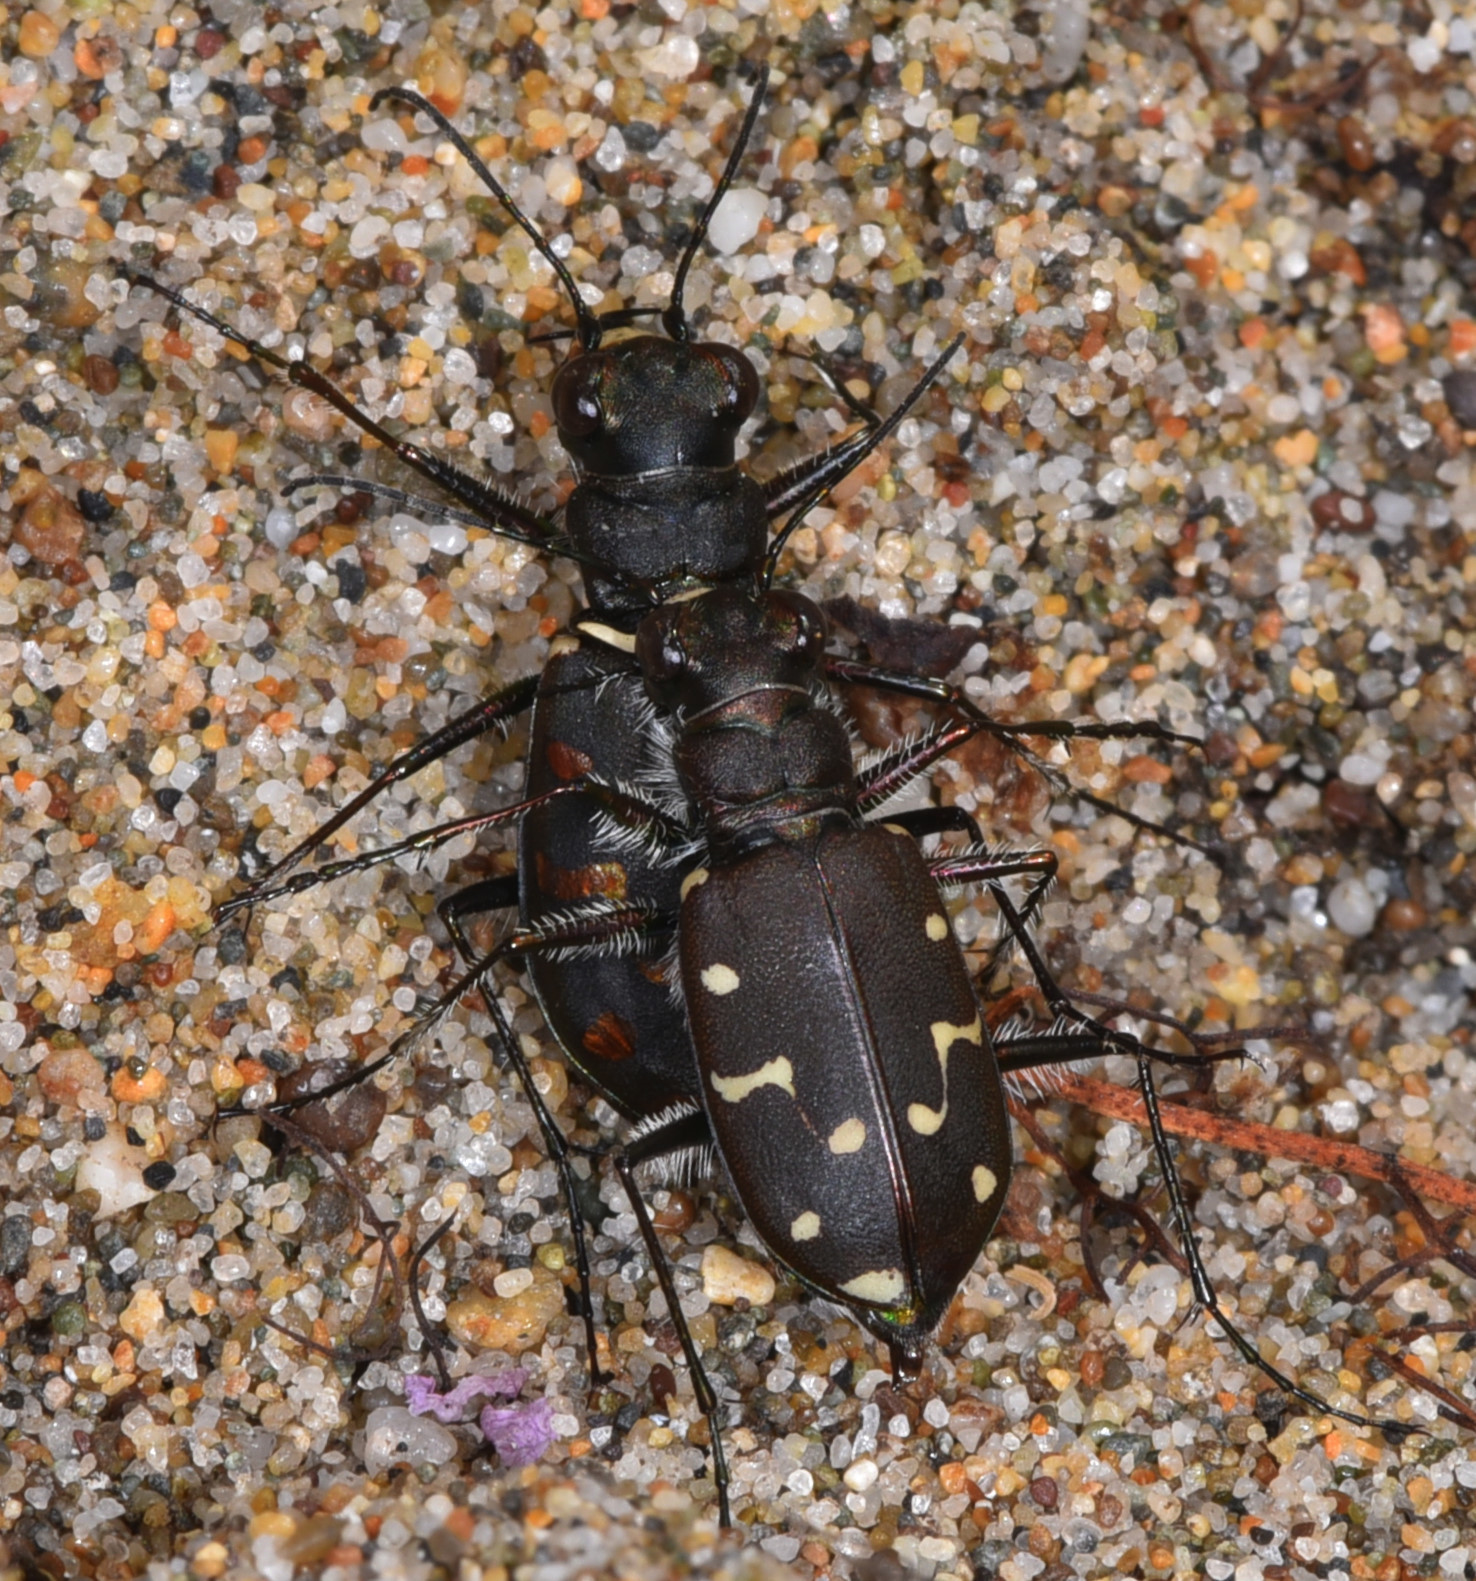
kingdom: Animalia
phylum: Arthropoda
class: Insecta
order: Coleoptera
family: Carabidae
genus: Cicindela
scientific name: Cicindela oregona
